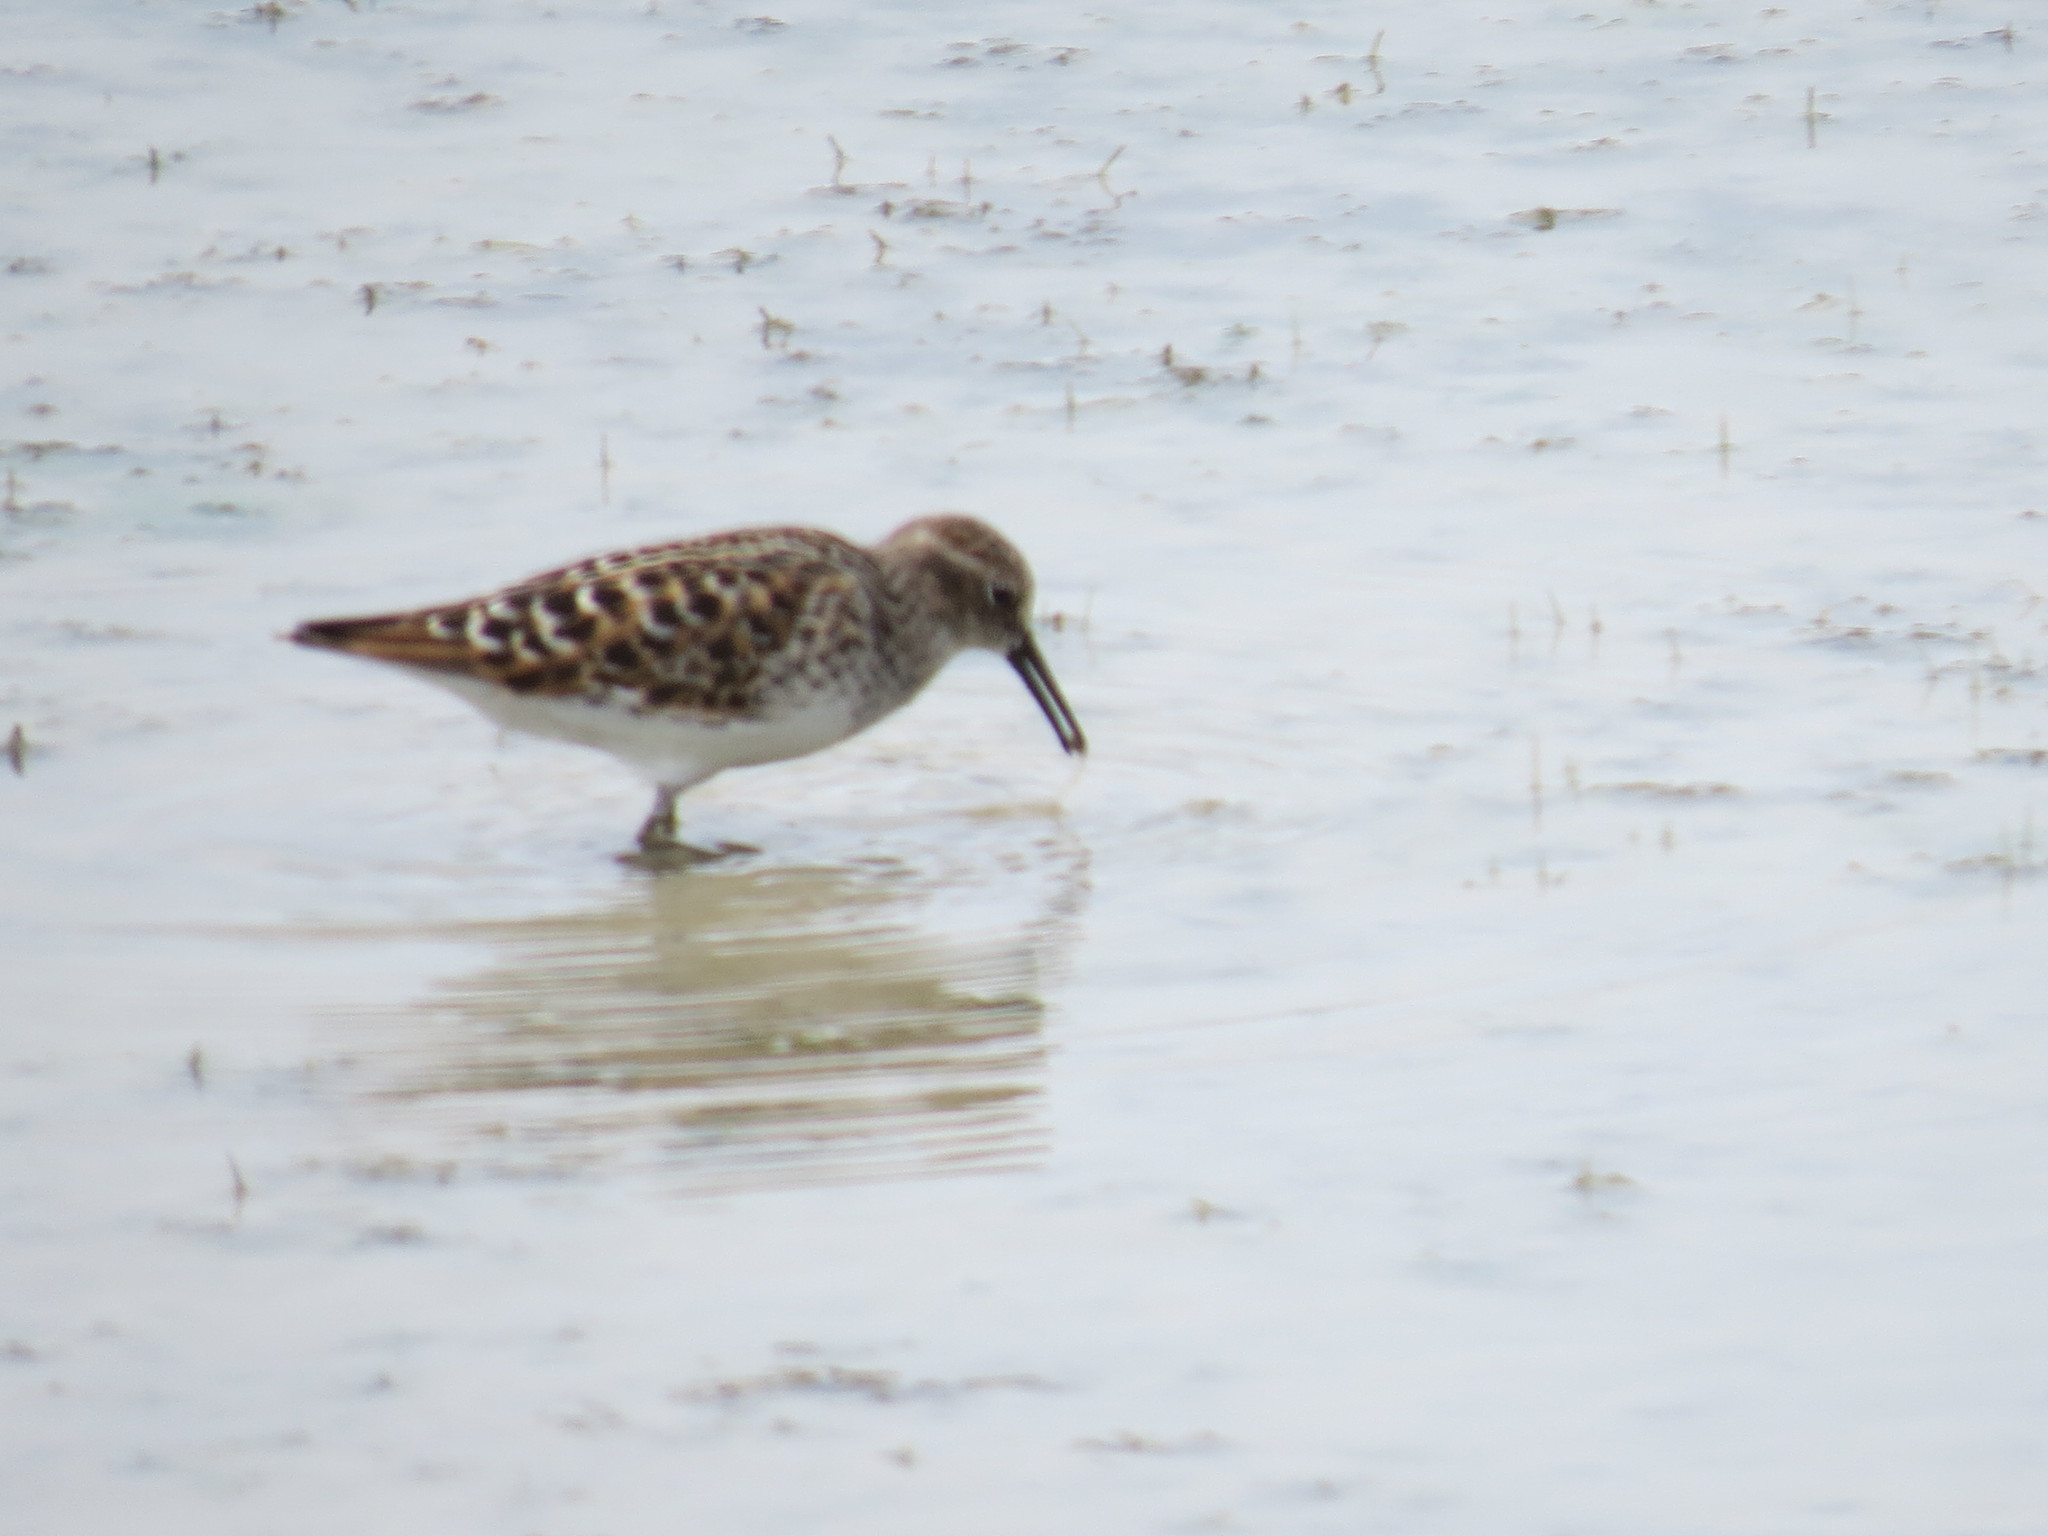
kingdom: Animalia
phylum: Chordata
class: Aves
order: Charadriiformes
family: Scolopacidae
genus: Calidris
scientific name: Calidris minutilla
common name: Least sandpiper
